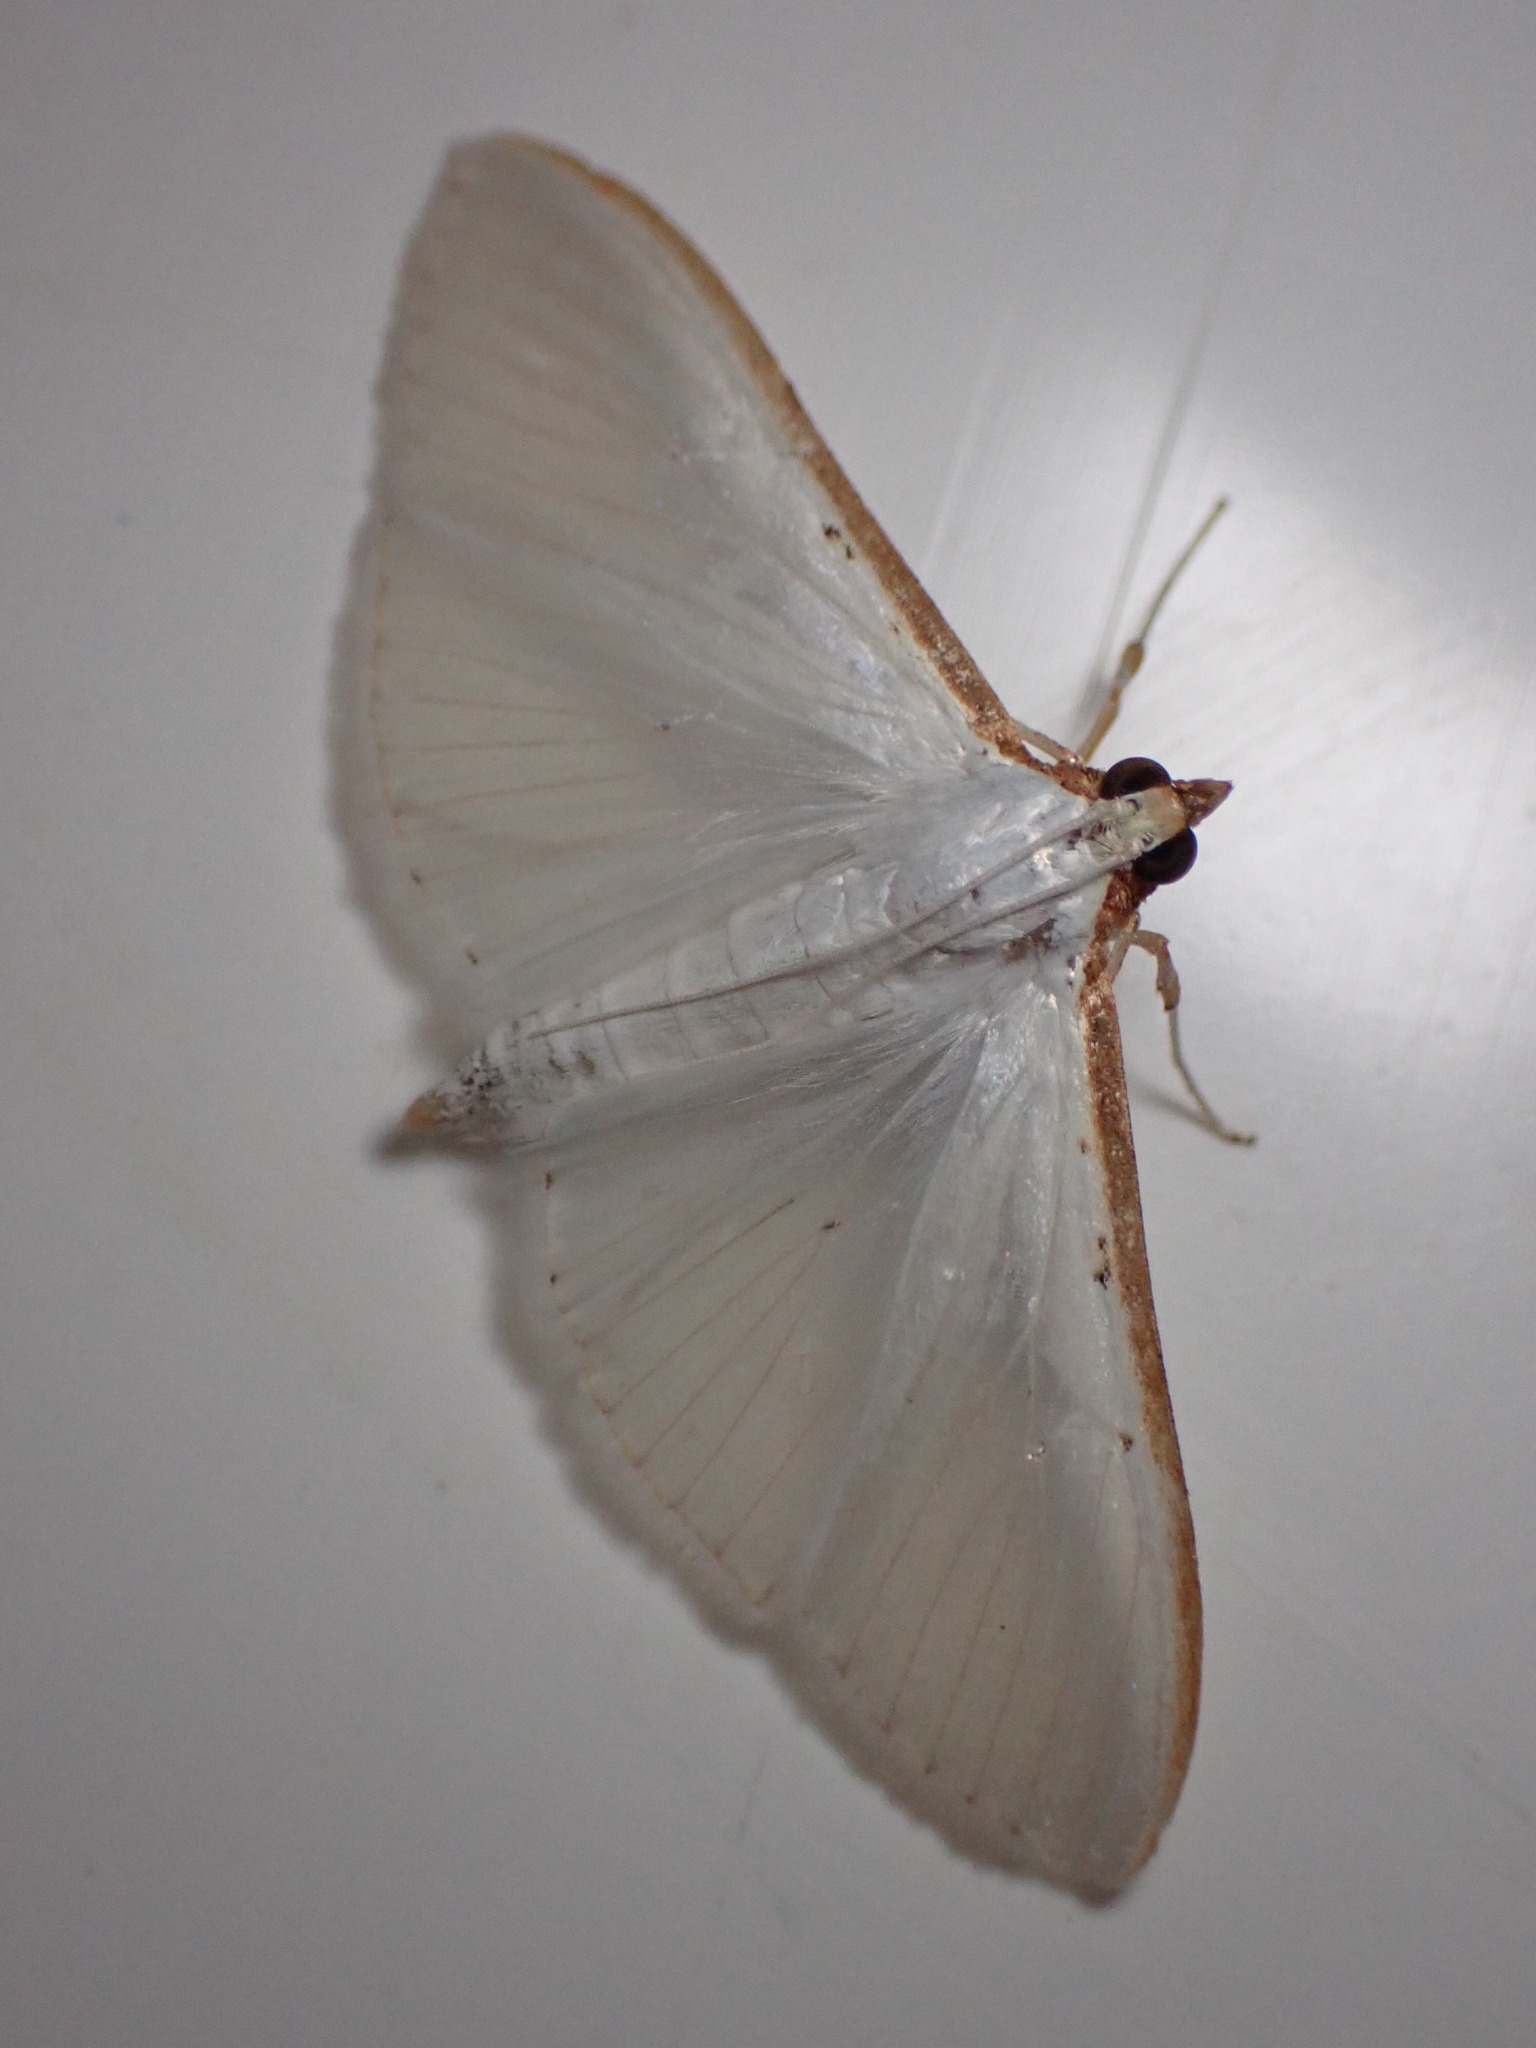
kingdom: Animalia
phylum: Arthropoda
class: Insecta
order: Lepidoptera
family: Crambidae
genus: Palpita
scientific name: Palpita vitrealis
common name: Olive-tree pearl
